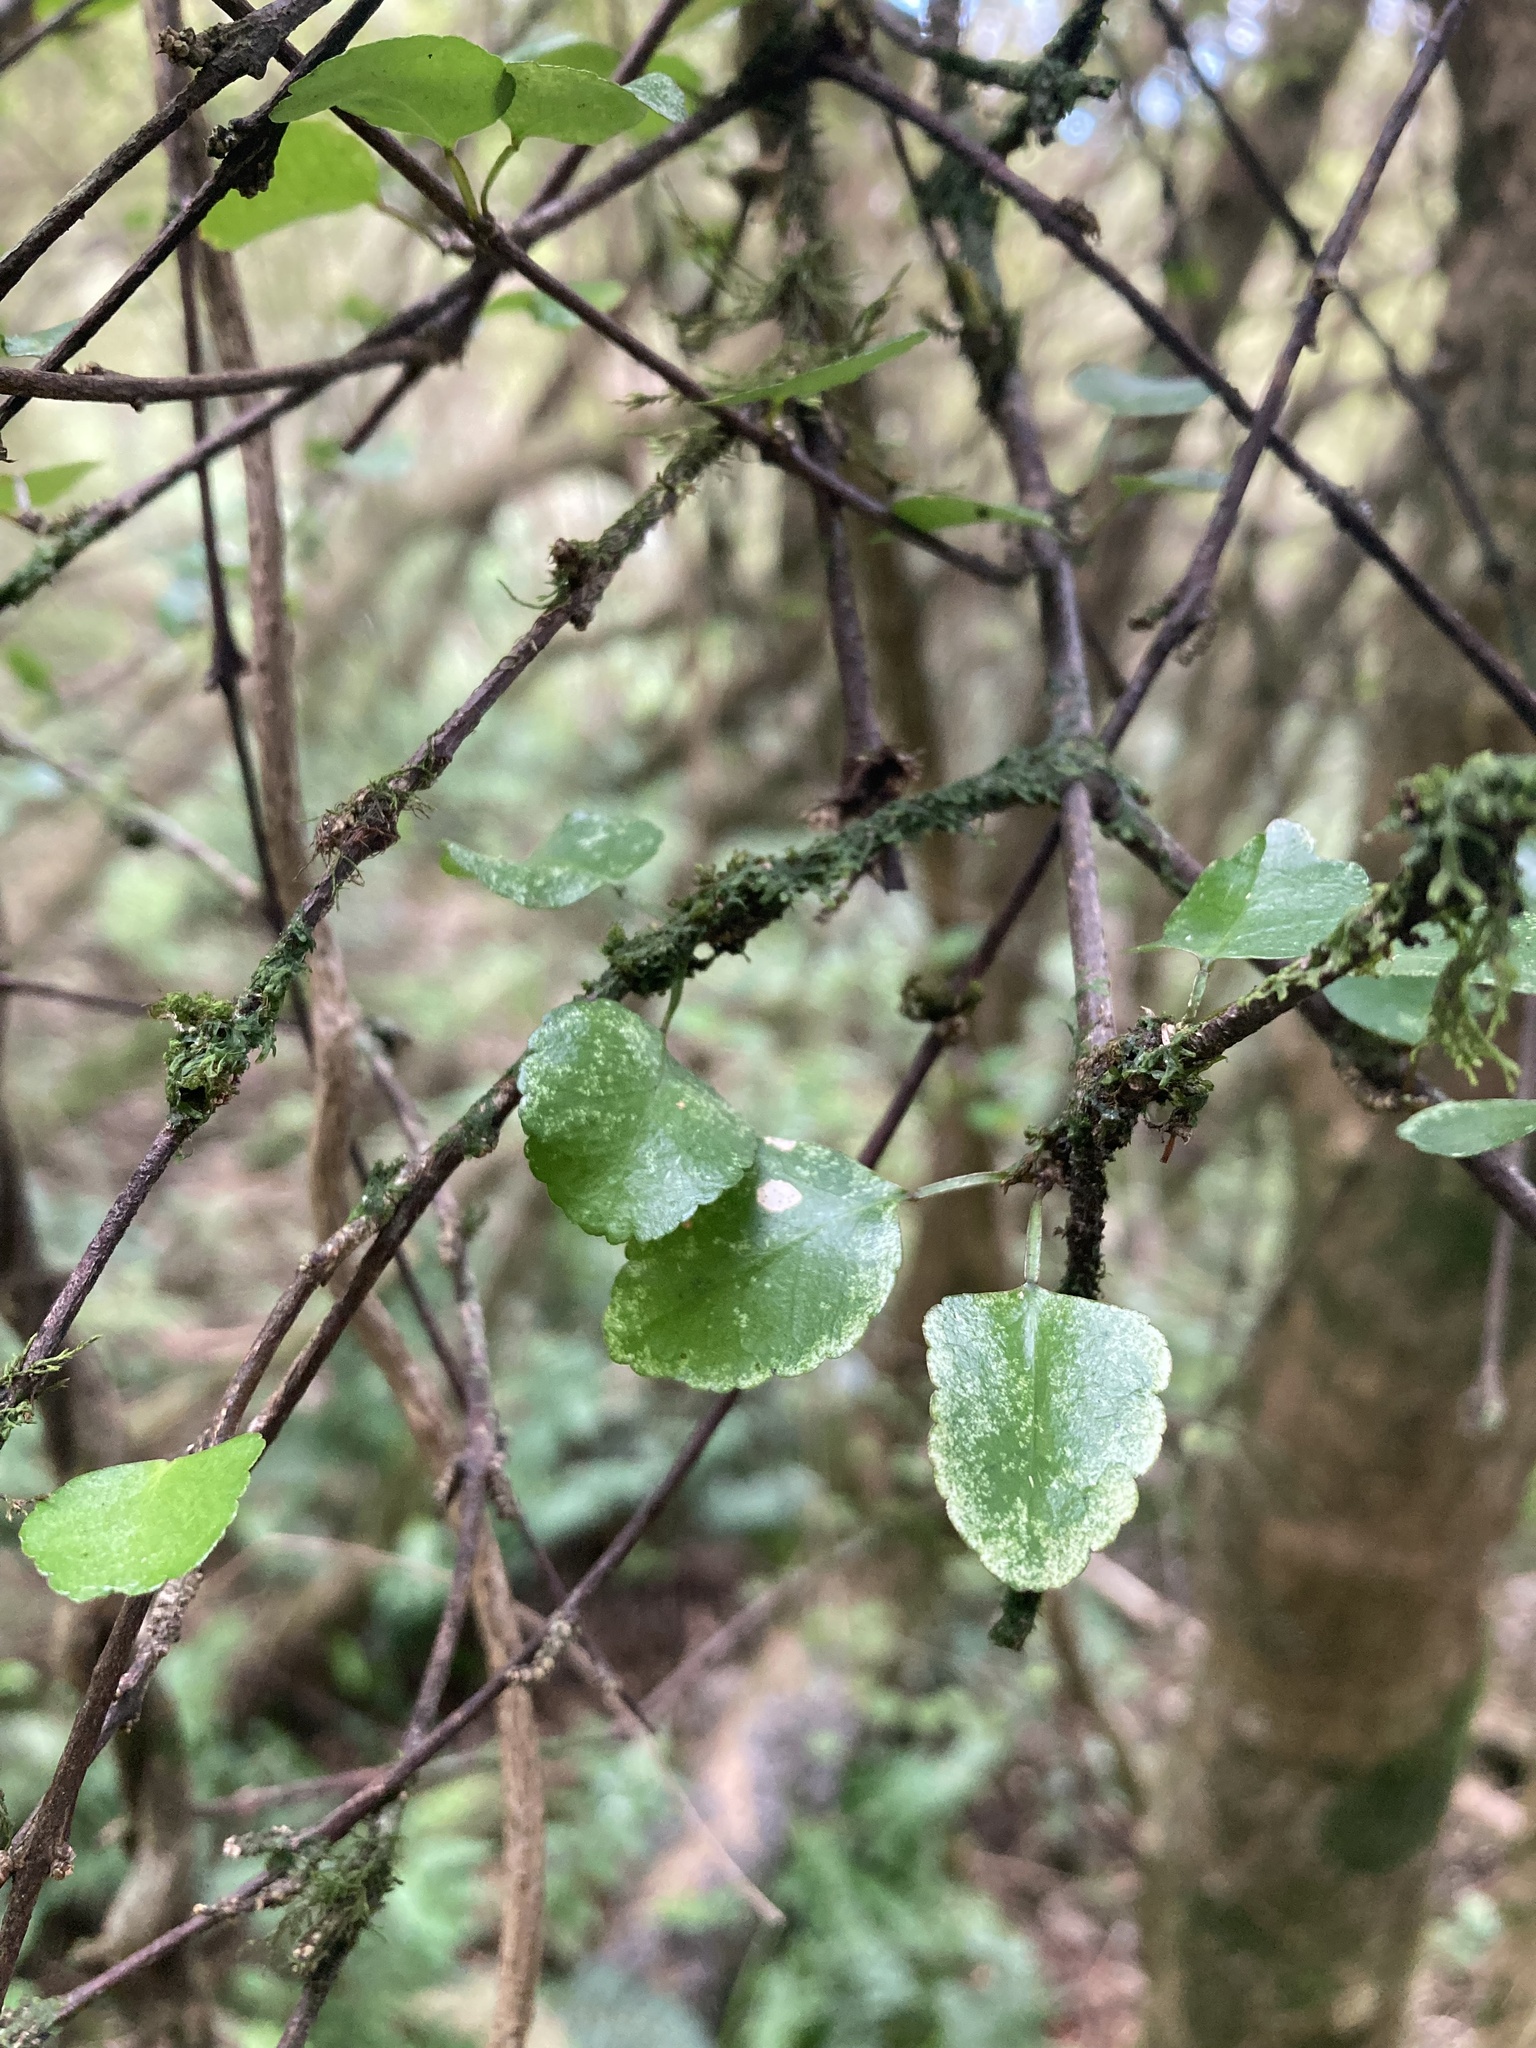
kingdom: Plantae
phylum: Tracheophyta
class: Magnoliopsida
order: Sapindales
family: Rutaceae
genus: Melicope
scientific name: Melicope simplex
